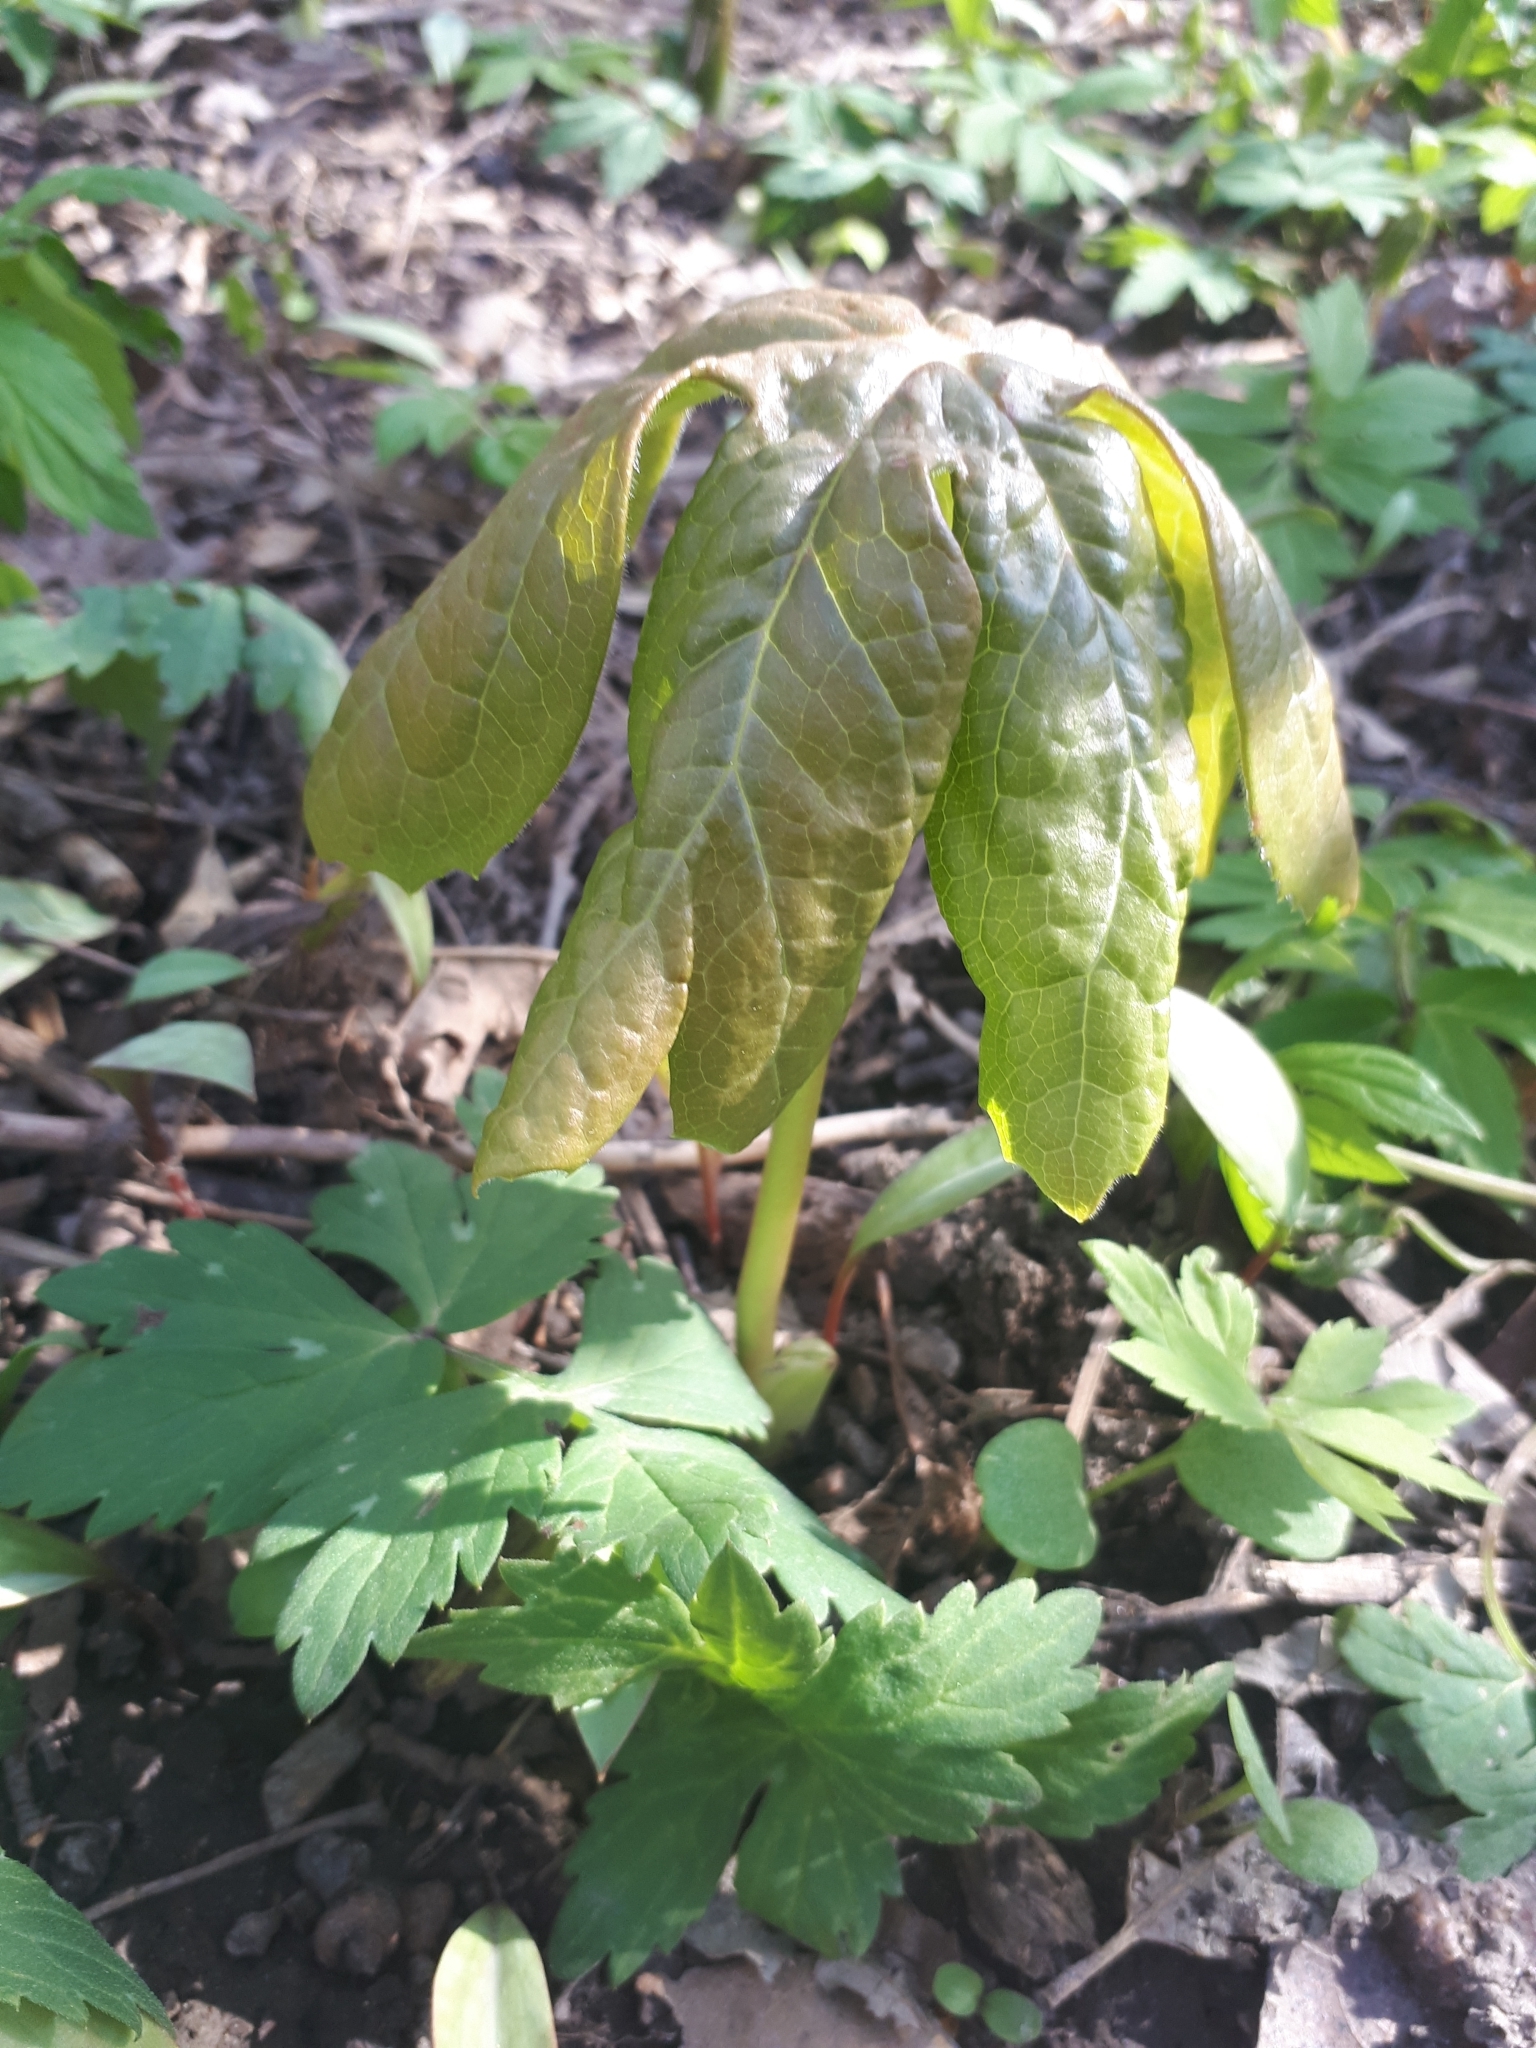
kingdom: Plantae
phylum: Tracheophyta
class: Magnoliopsida
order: Ranunculales
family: Berberidaceae
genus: Podophyllum
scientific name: Podophyllum peltatum
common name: Wild mandrake
